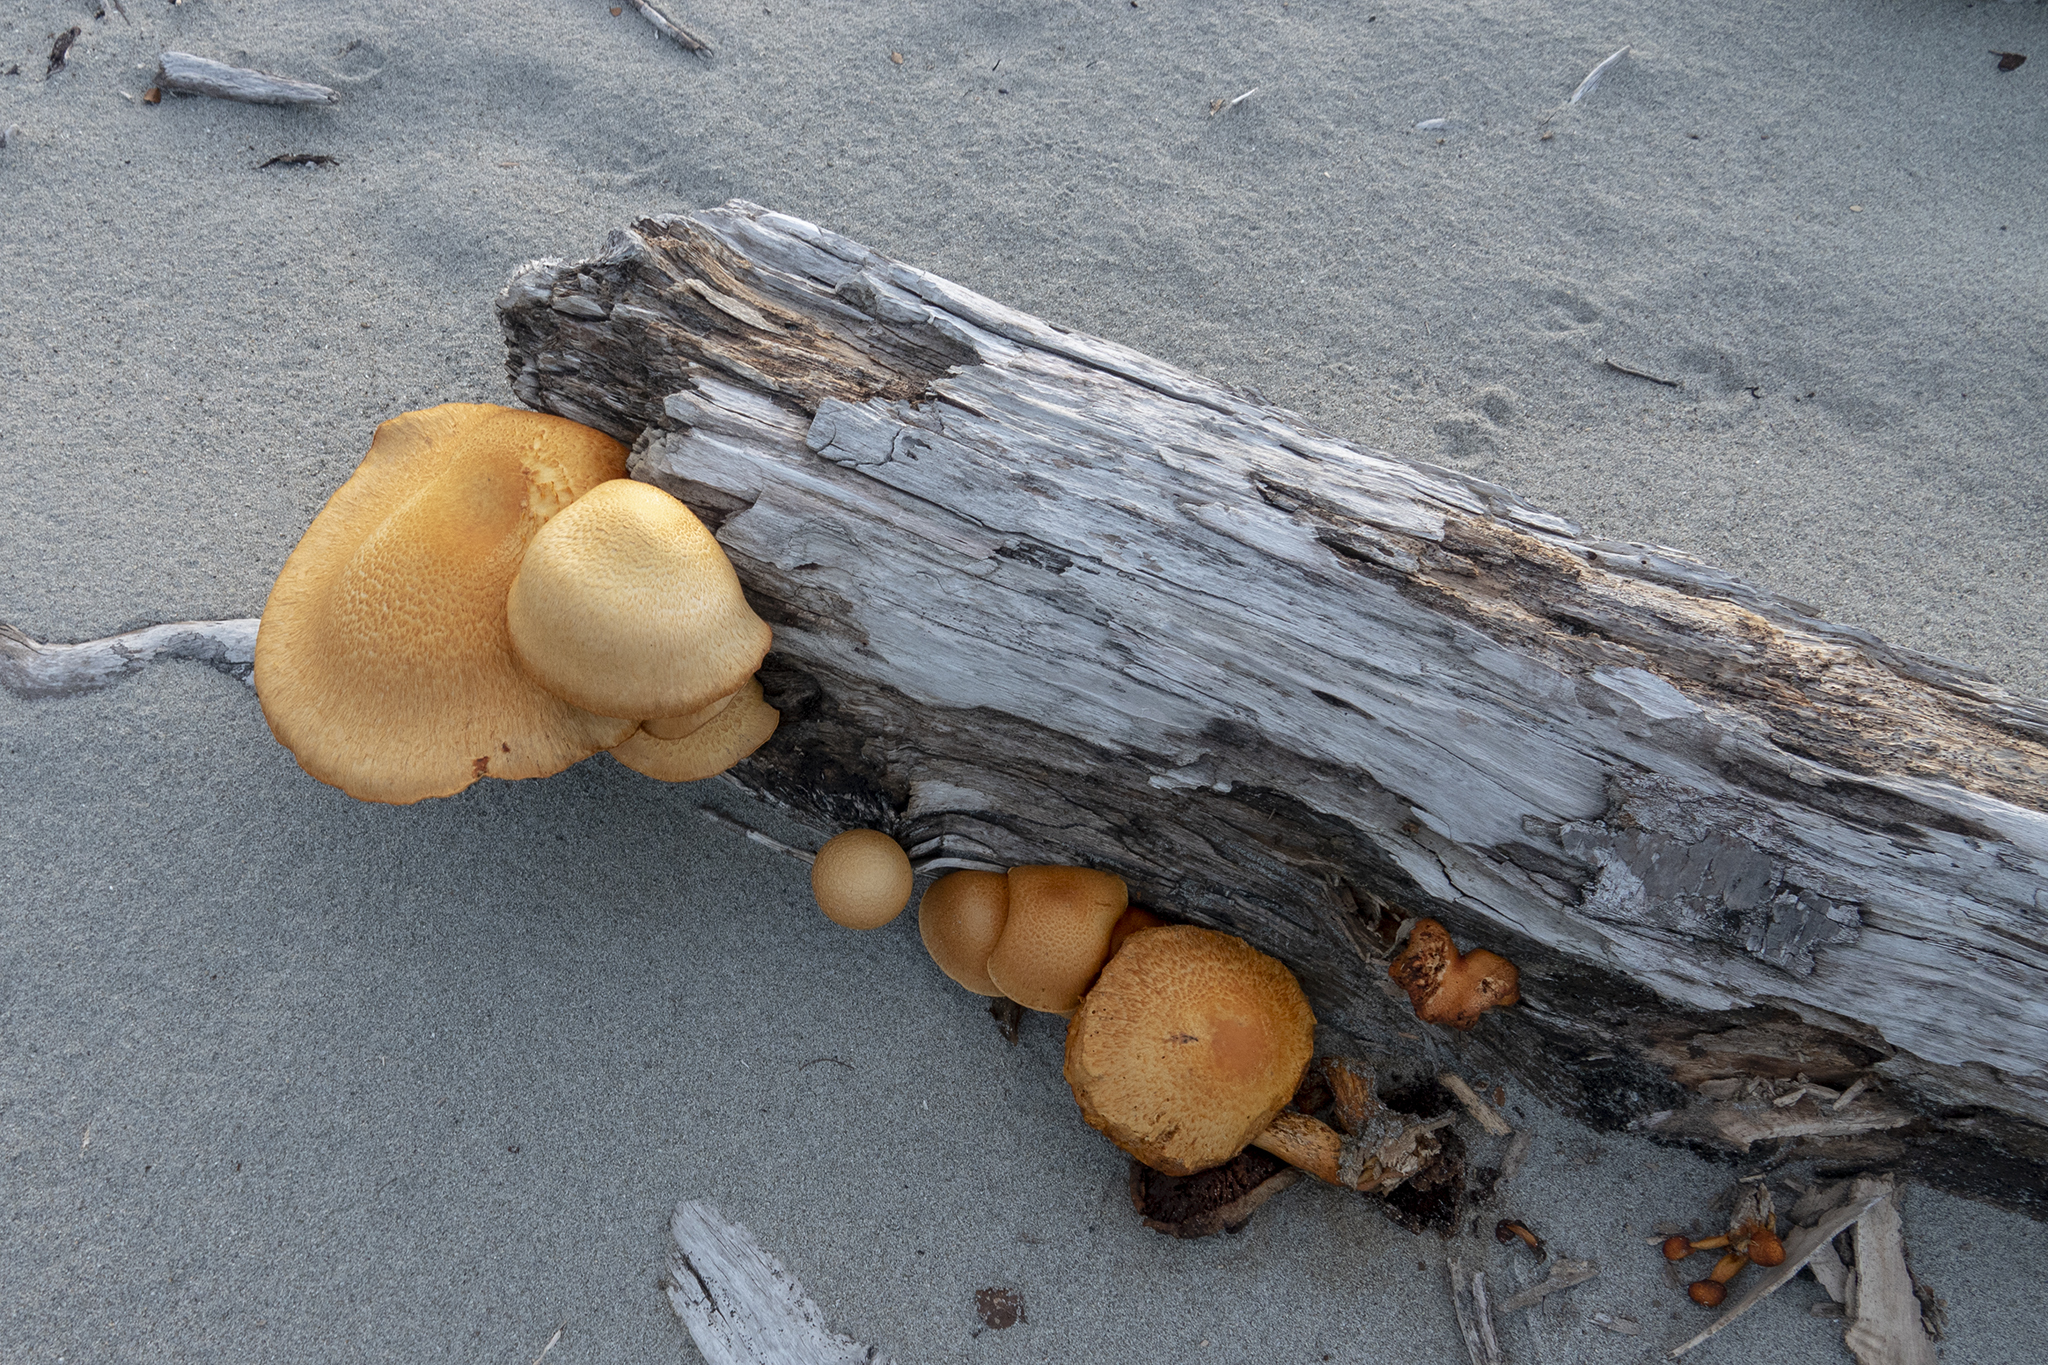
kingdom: Fungi
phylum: Basidiomycota
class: Agaricomycetes
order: Agaricales
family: Hymenogastraceae
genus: Gymnopilus
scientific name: Gymnopilus junonius
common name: Spectacular rustgill
